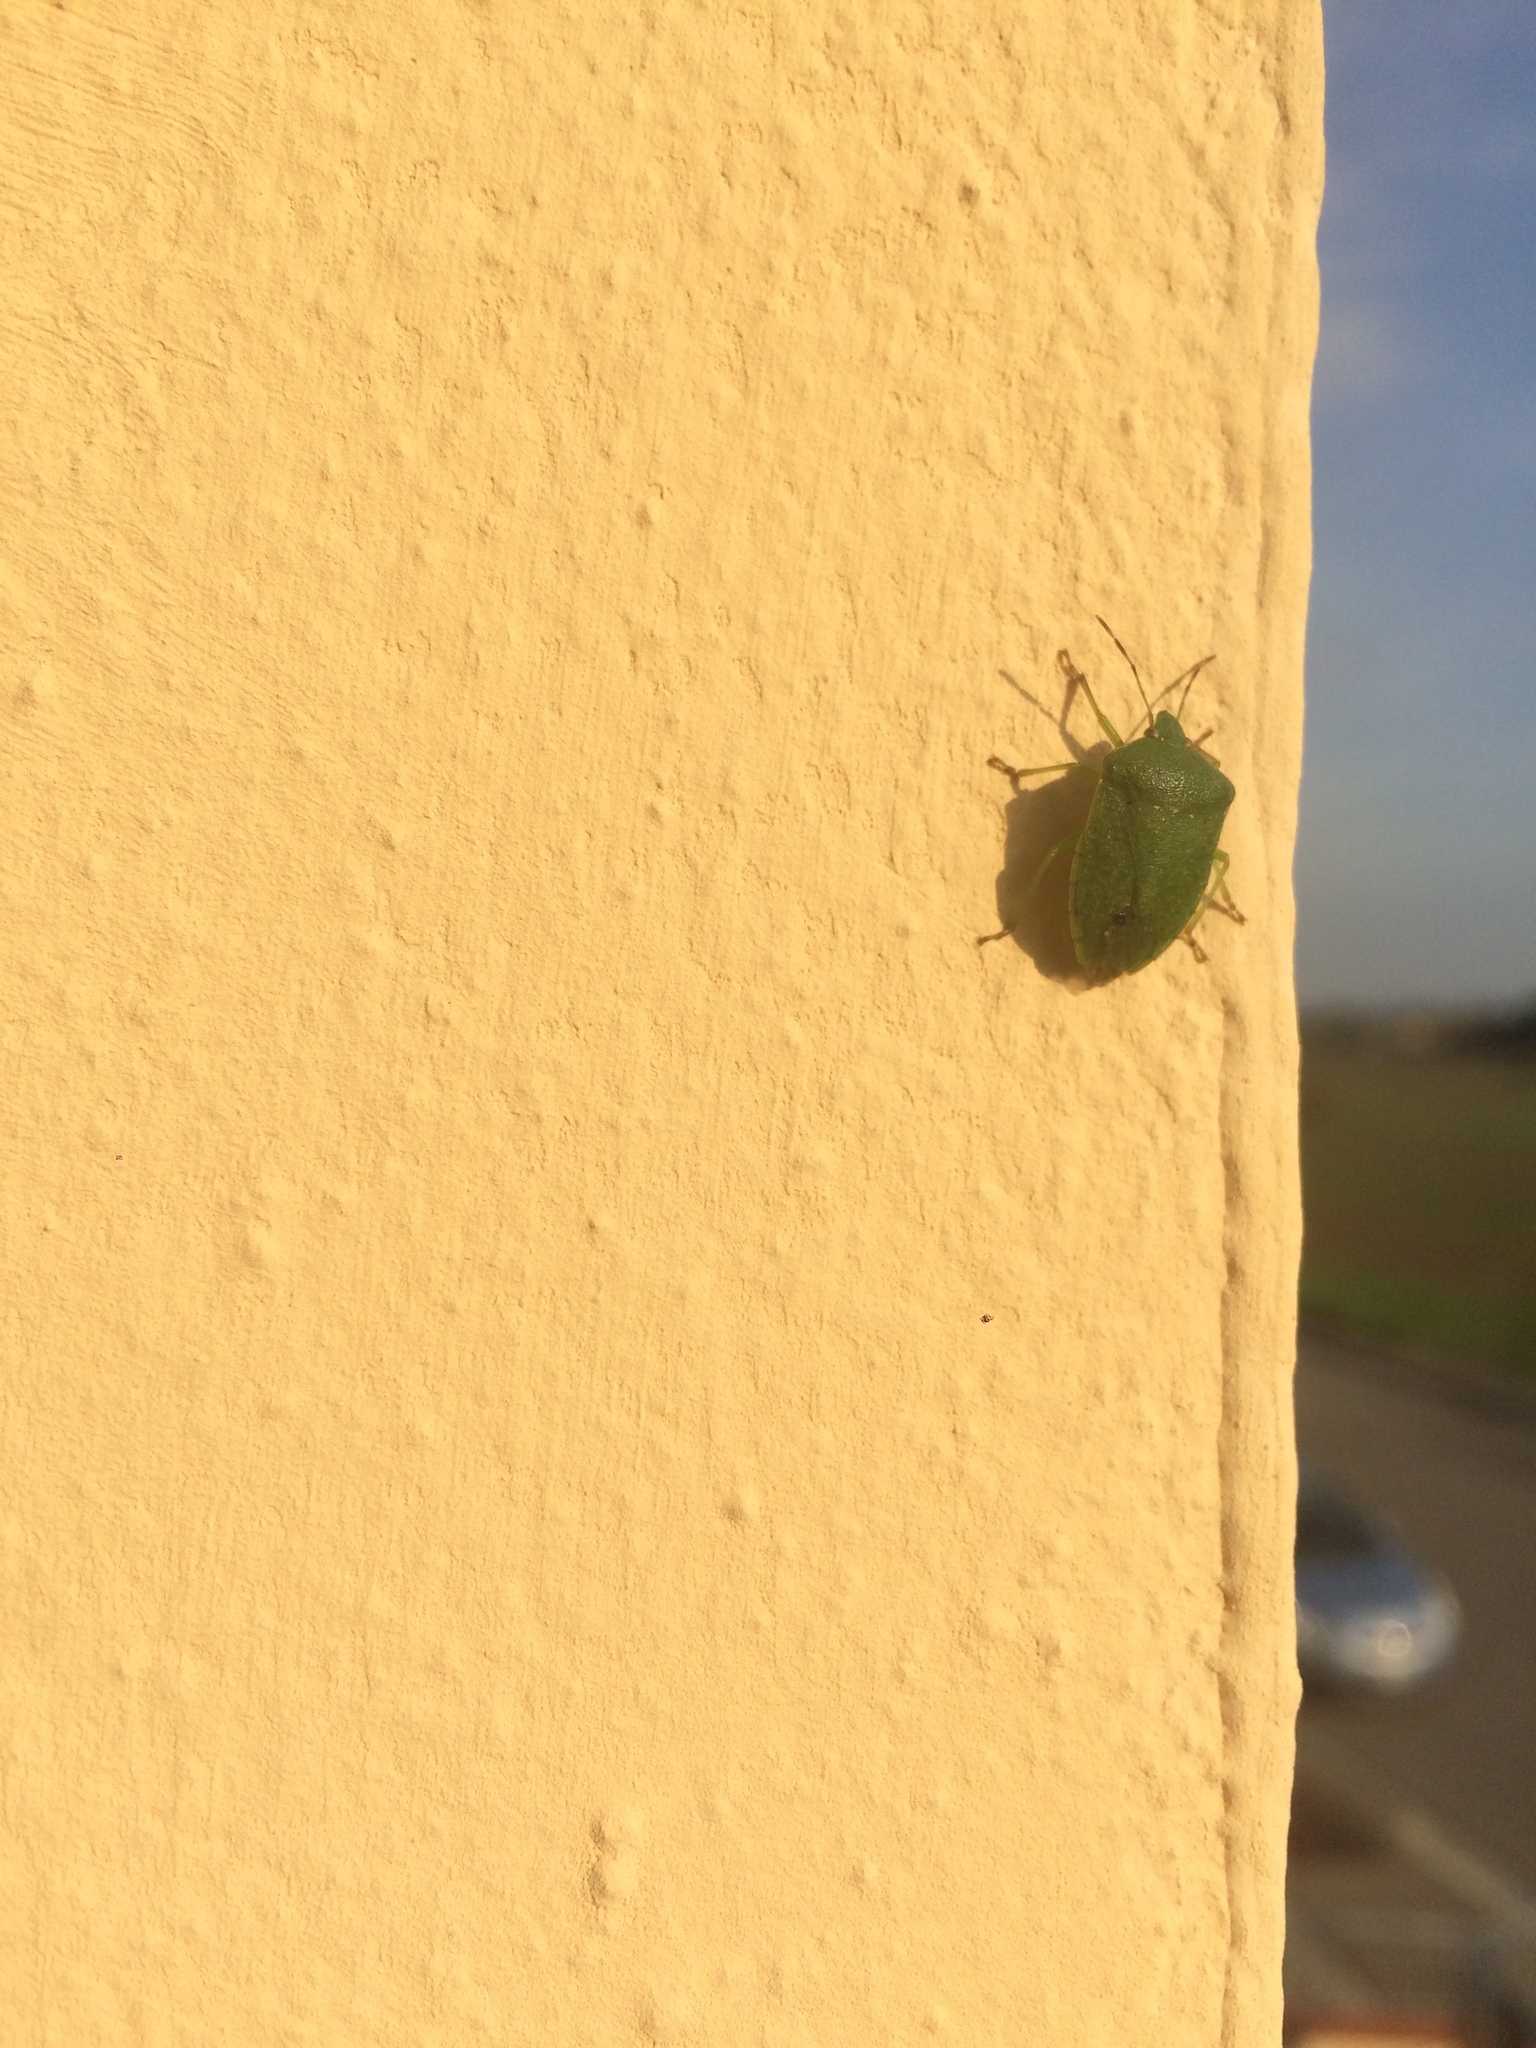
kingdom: Animalia
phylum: Arthropoda
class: Insecta
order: Hemiptera
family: Pentatomidae
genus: Nezara
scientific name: Nezara viridula
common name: Southern green stink bug
